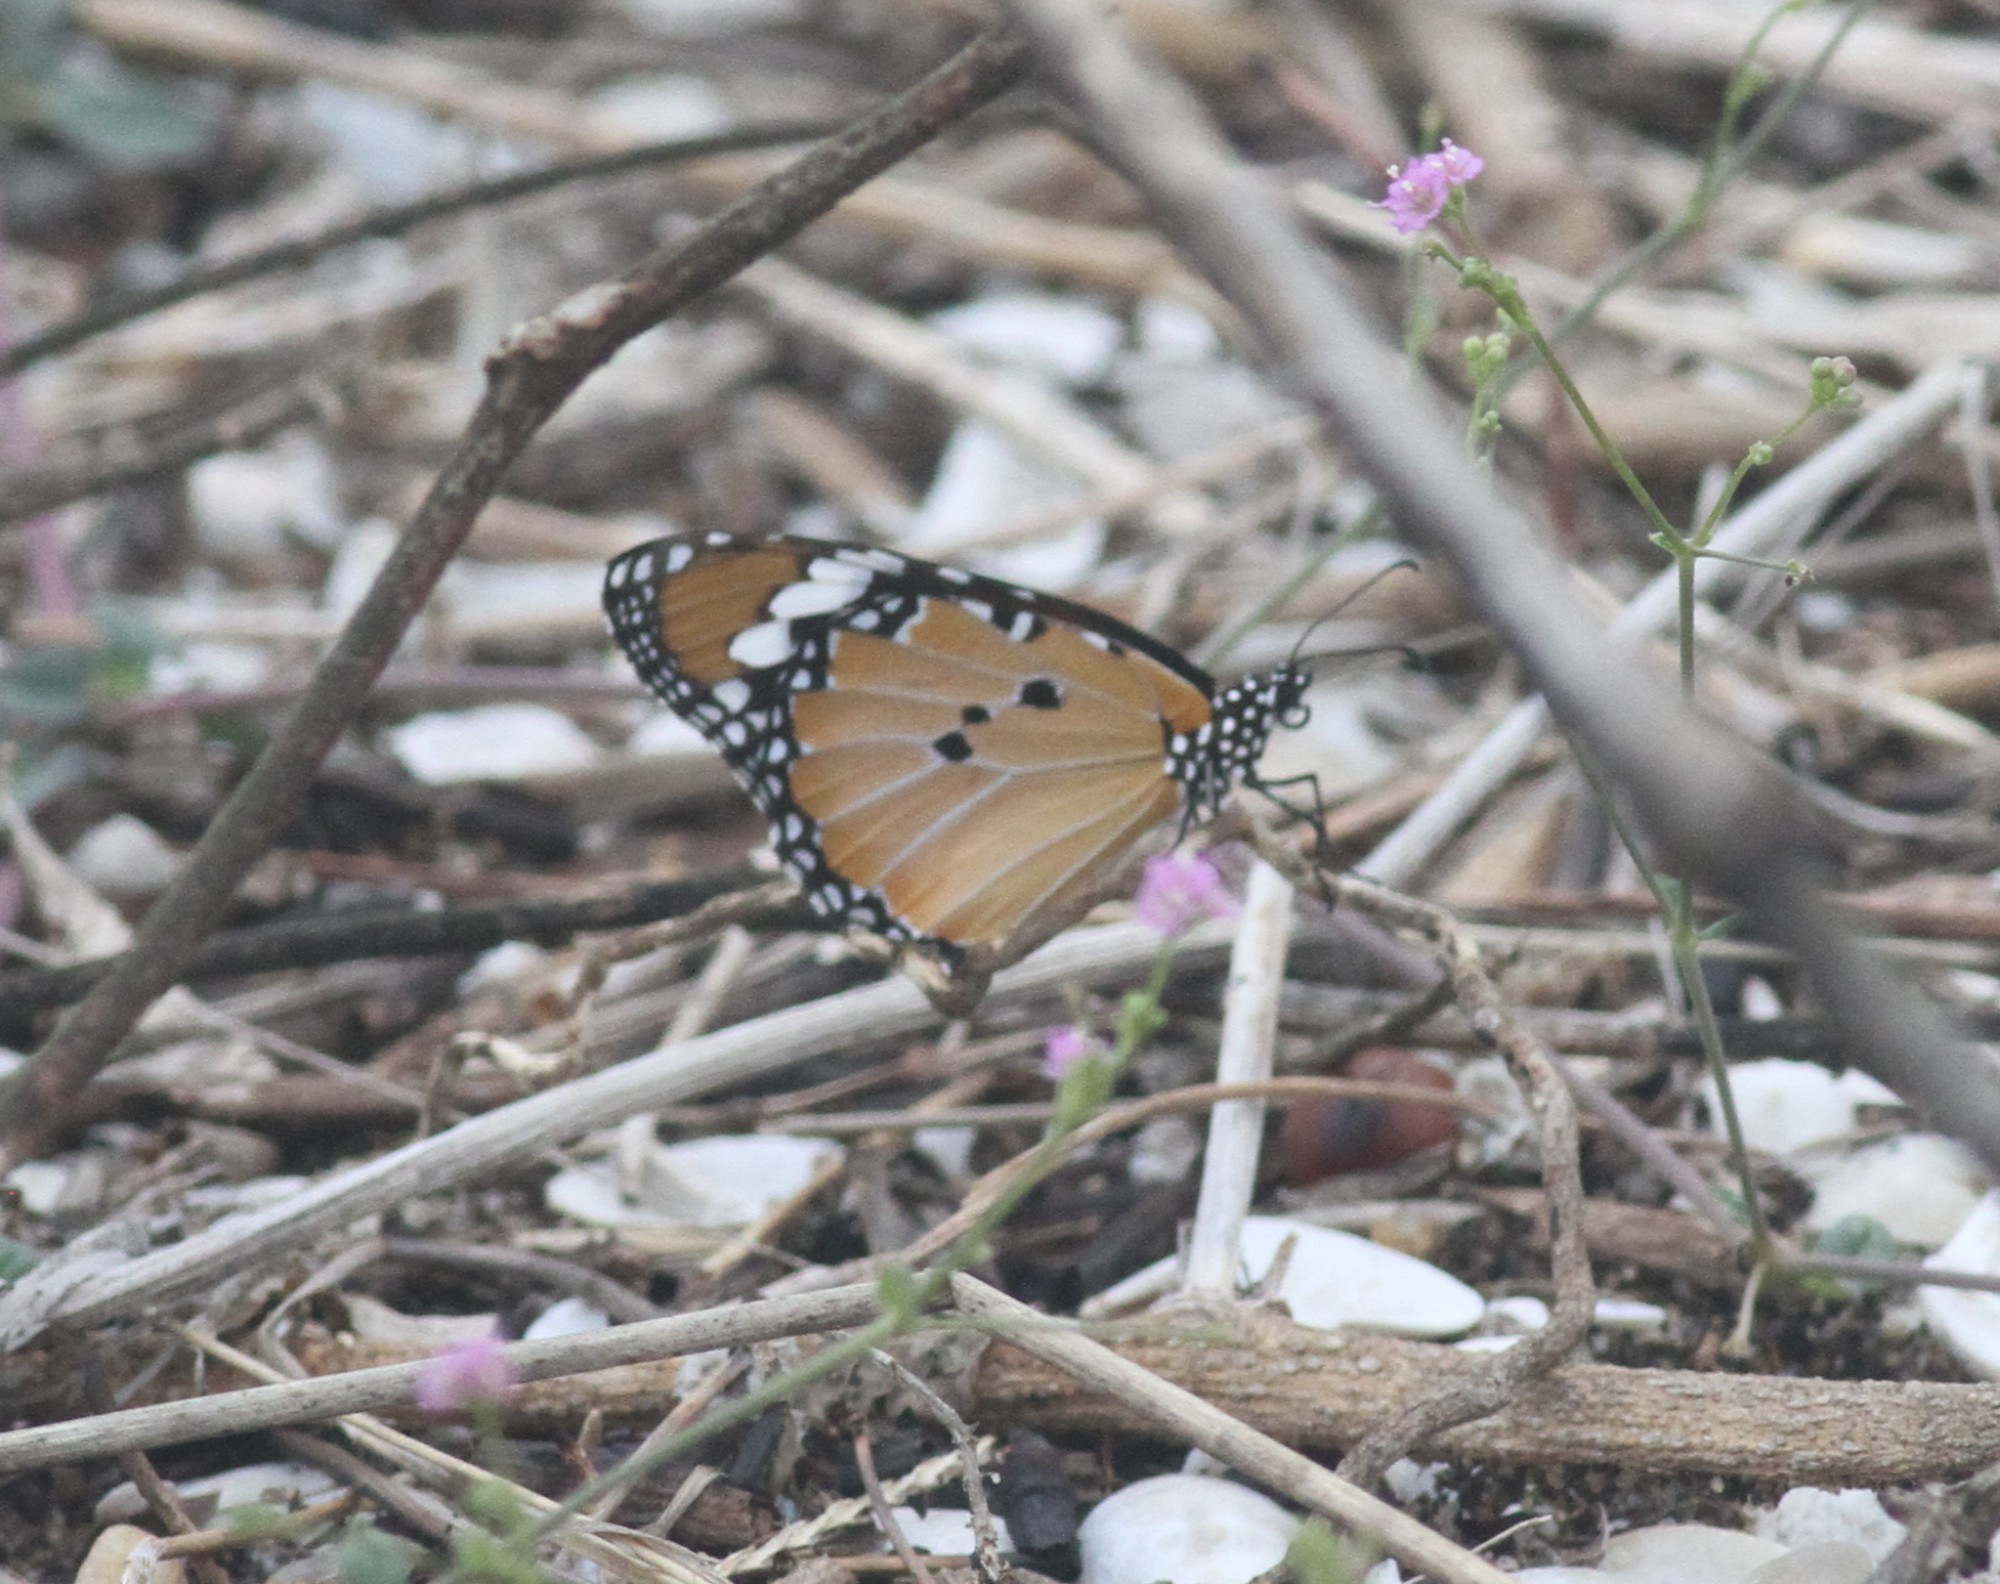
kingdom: Animalia
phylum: Arthropoda
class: Insecta
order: Lepidoptera
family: Nymphalidae
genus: Danaus
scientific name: Danaus chrysippus
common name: Plain tiger
